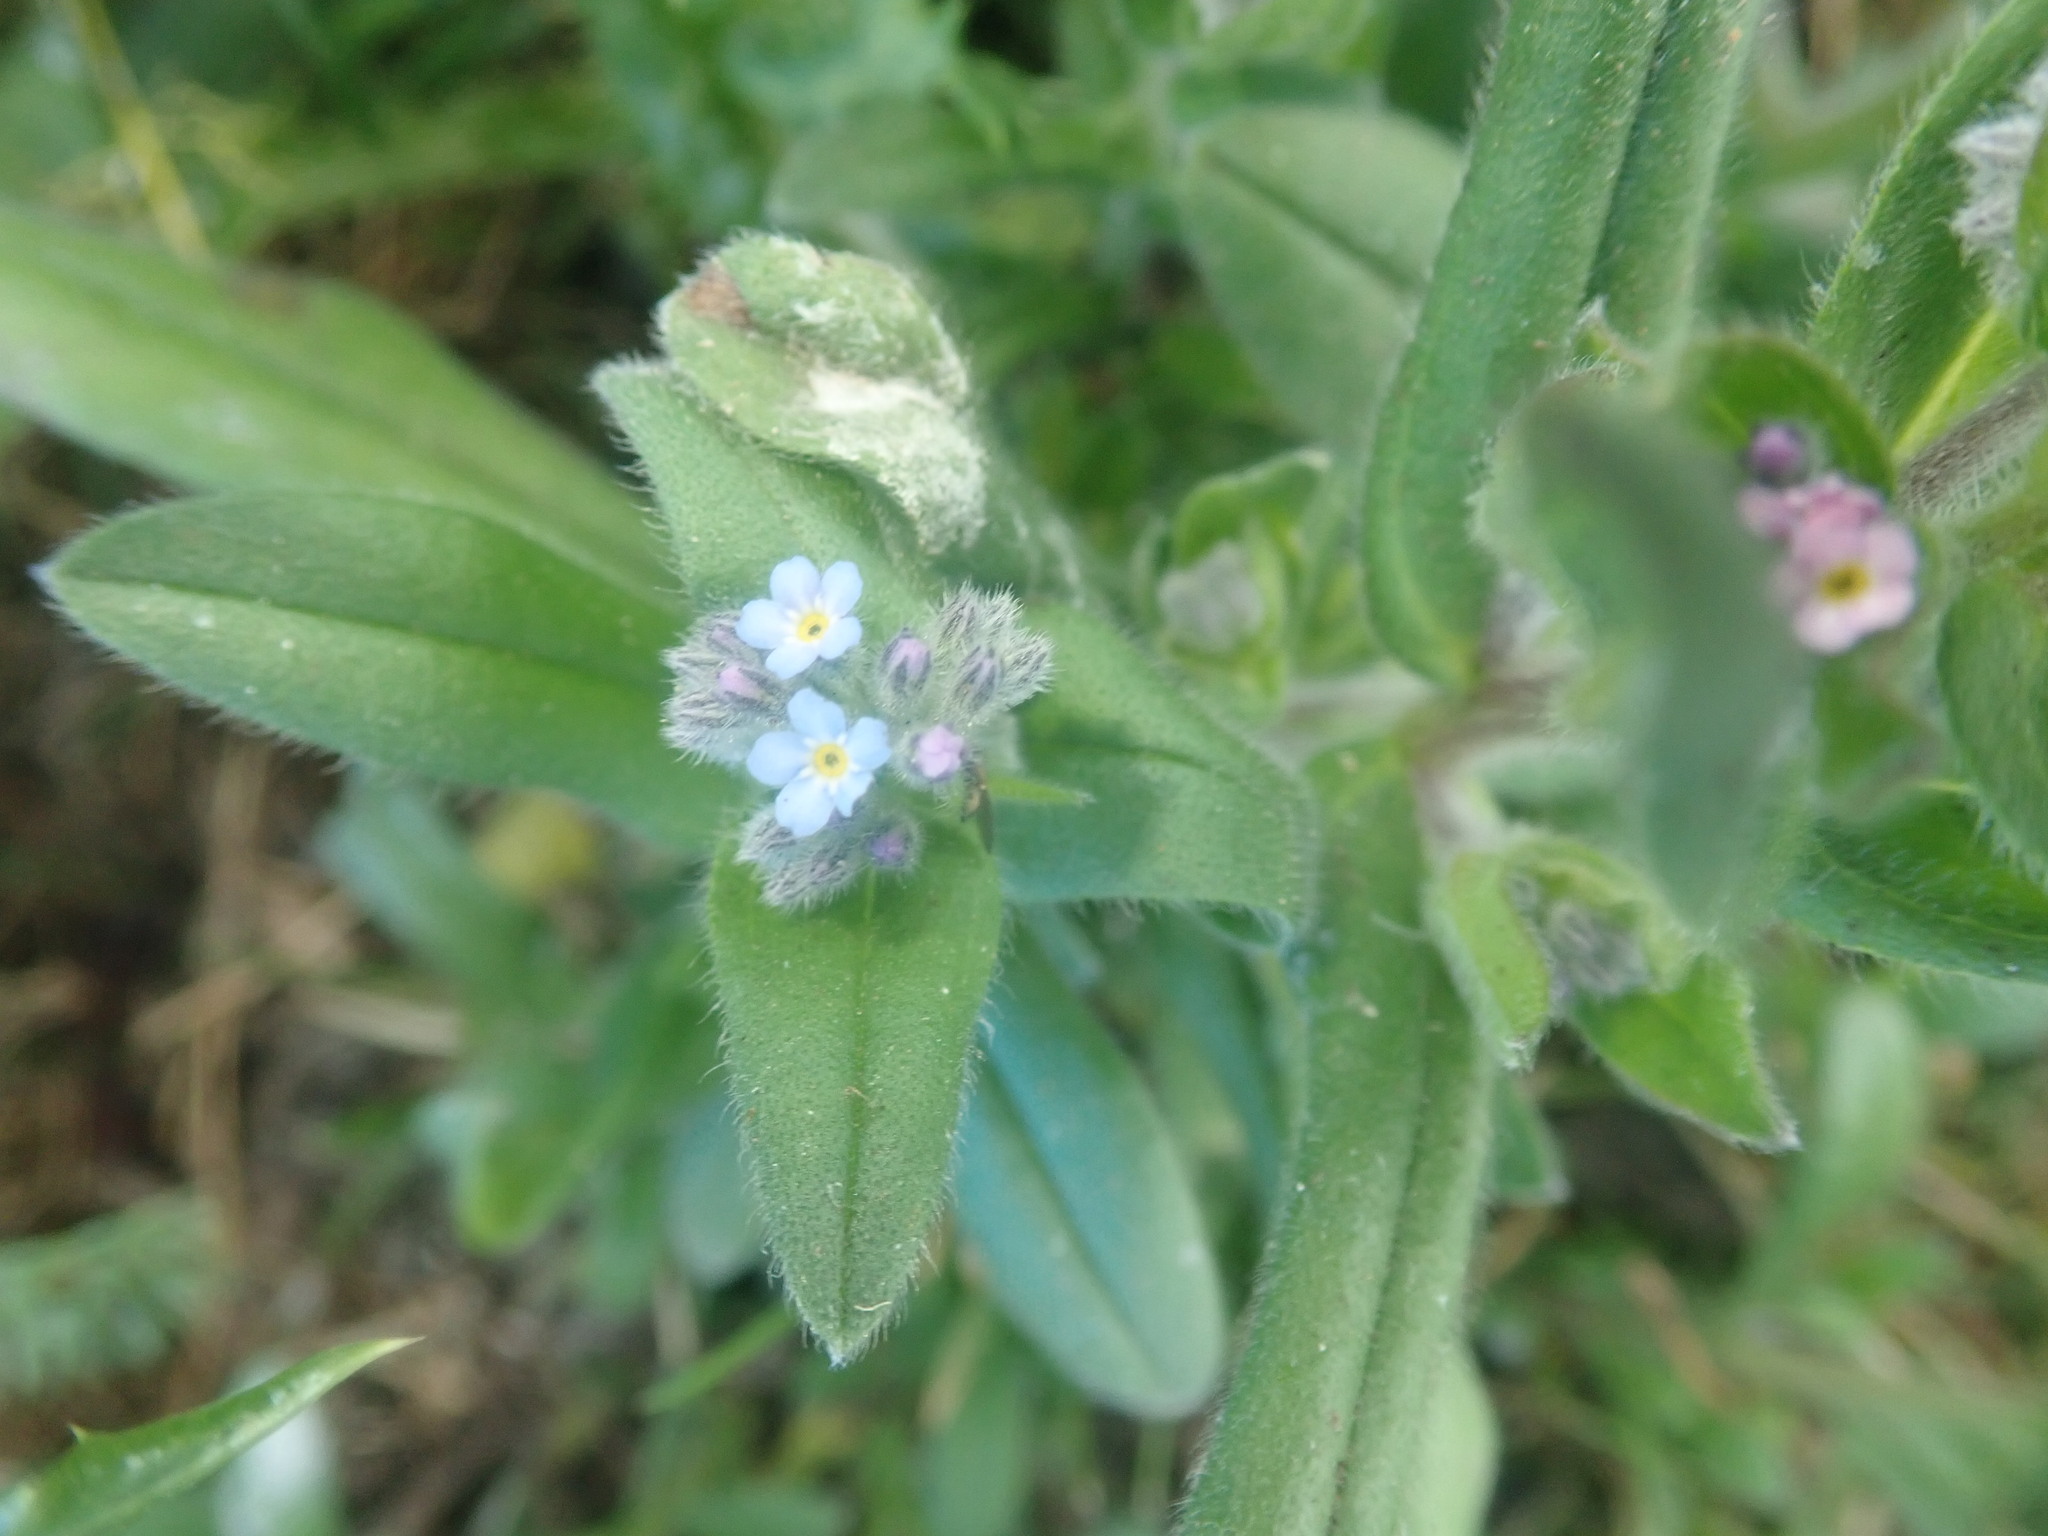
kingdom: Plantae
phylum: Tracheophyta
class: Magnoliopsida
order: Boraginales
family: Boraginaceae
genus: Lycopsis
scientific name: Lycopsis arvensis
